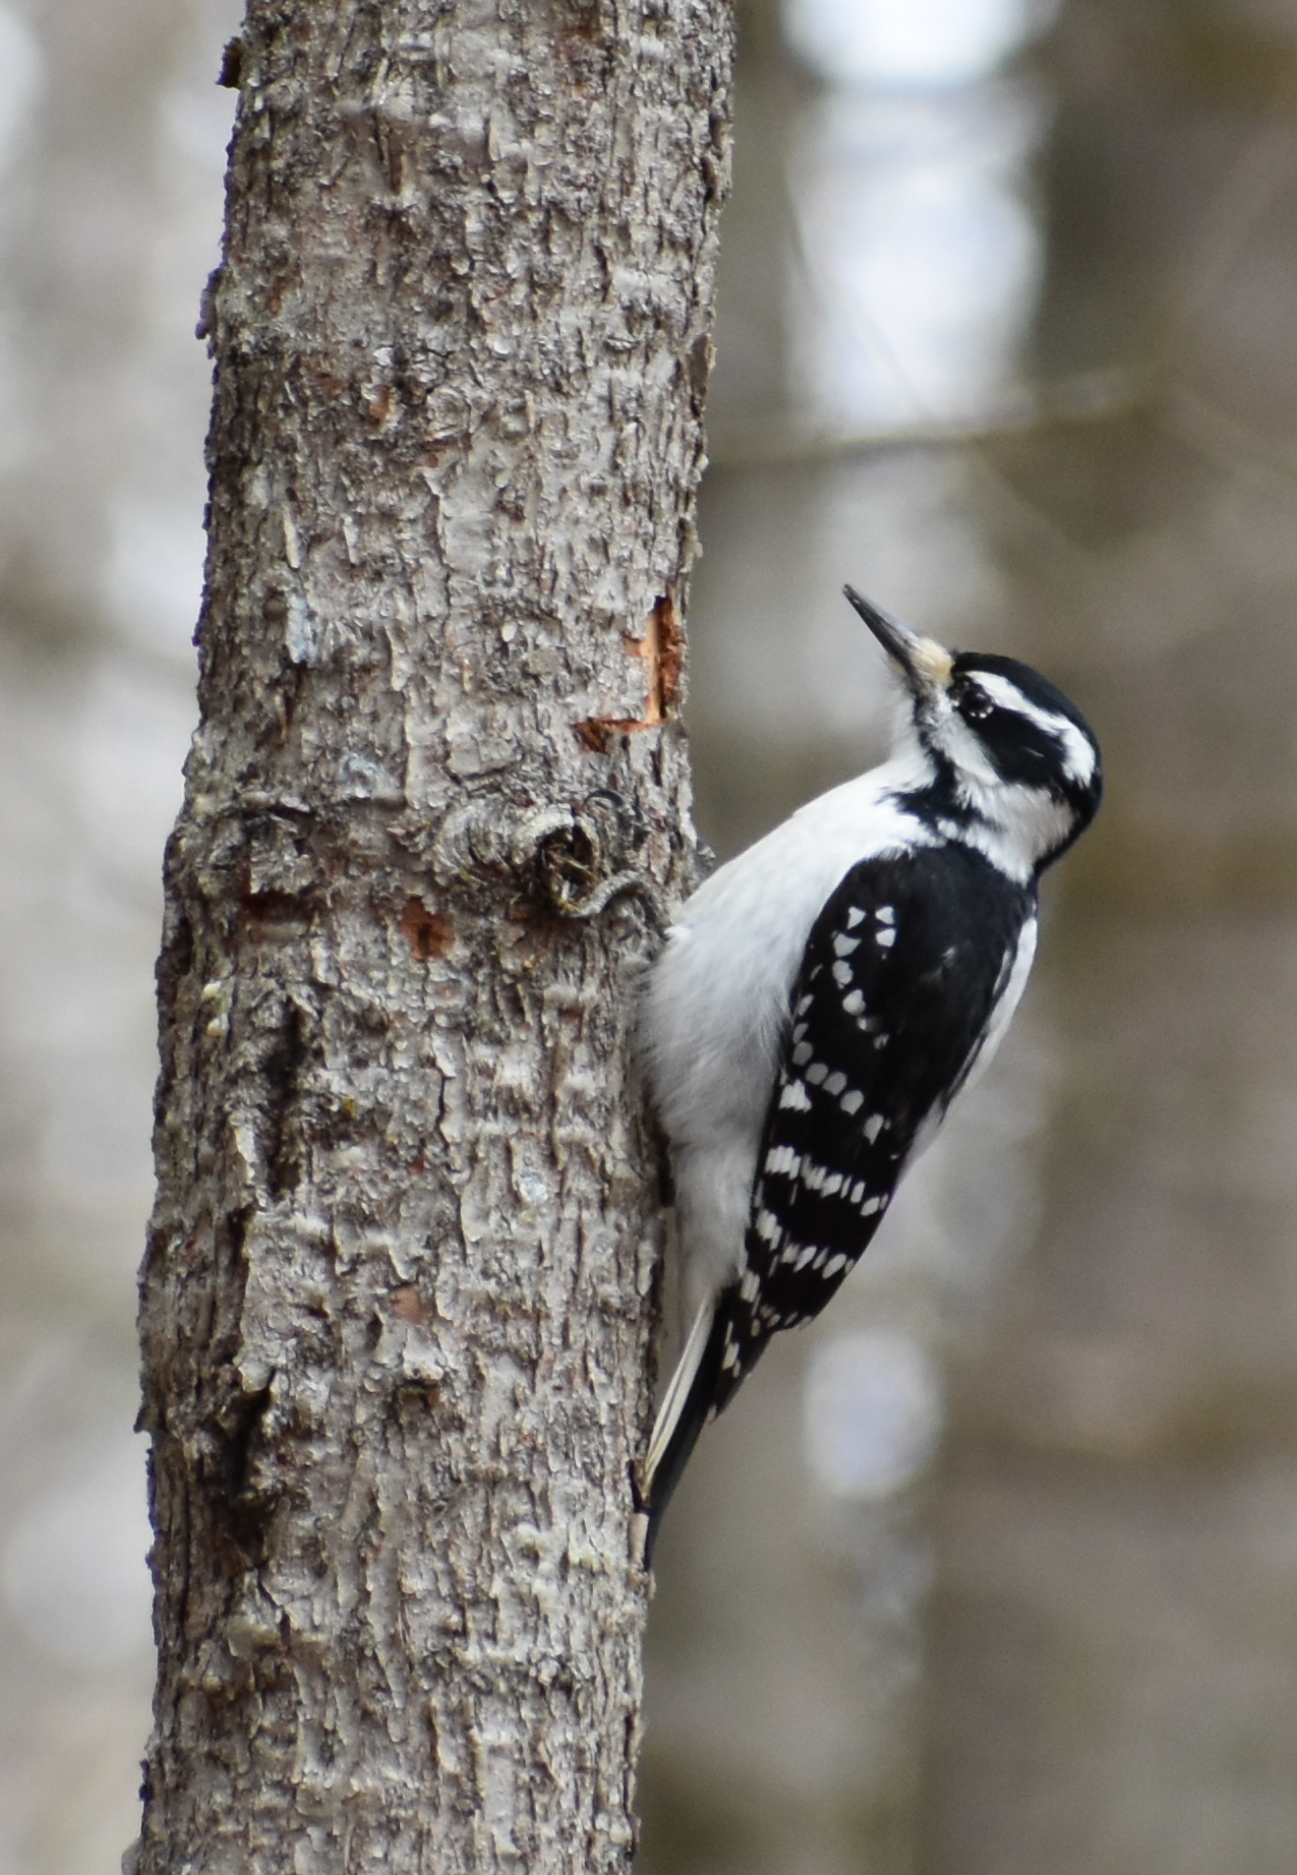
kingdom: Animalia
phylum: Chordata
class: Aves
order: Piciformes
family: Picidae
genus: Leuconotopicus
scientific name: Leuconotopicus villosus
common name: Hairy woodpecker
